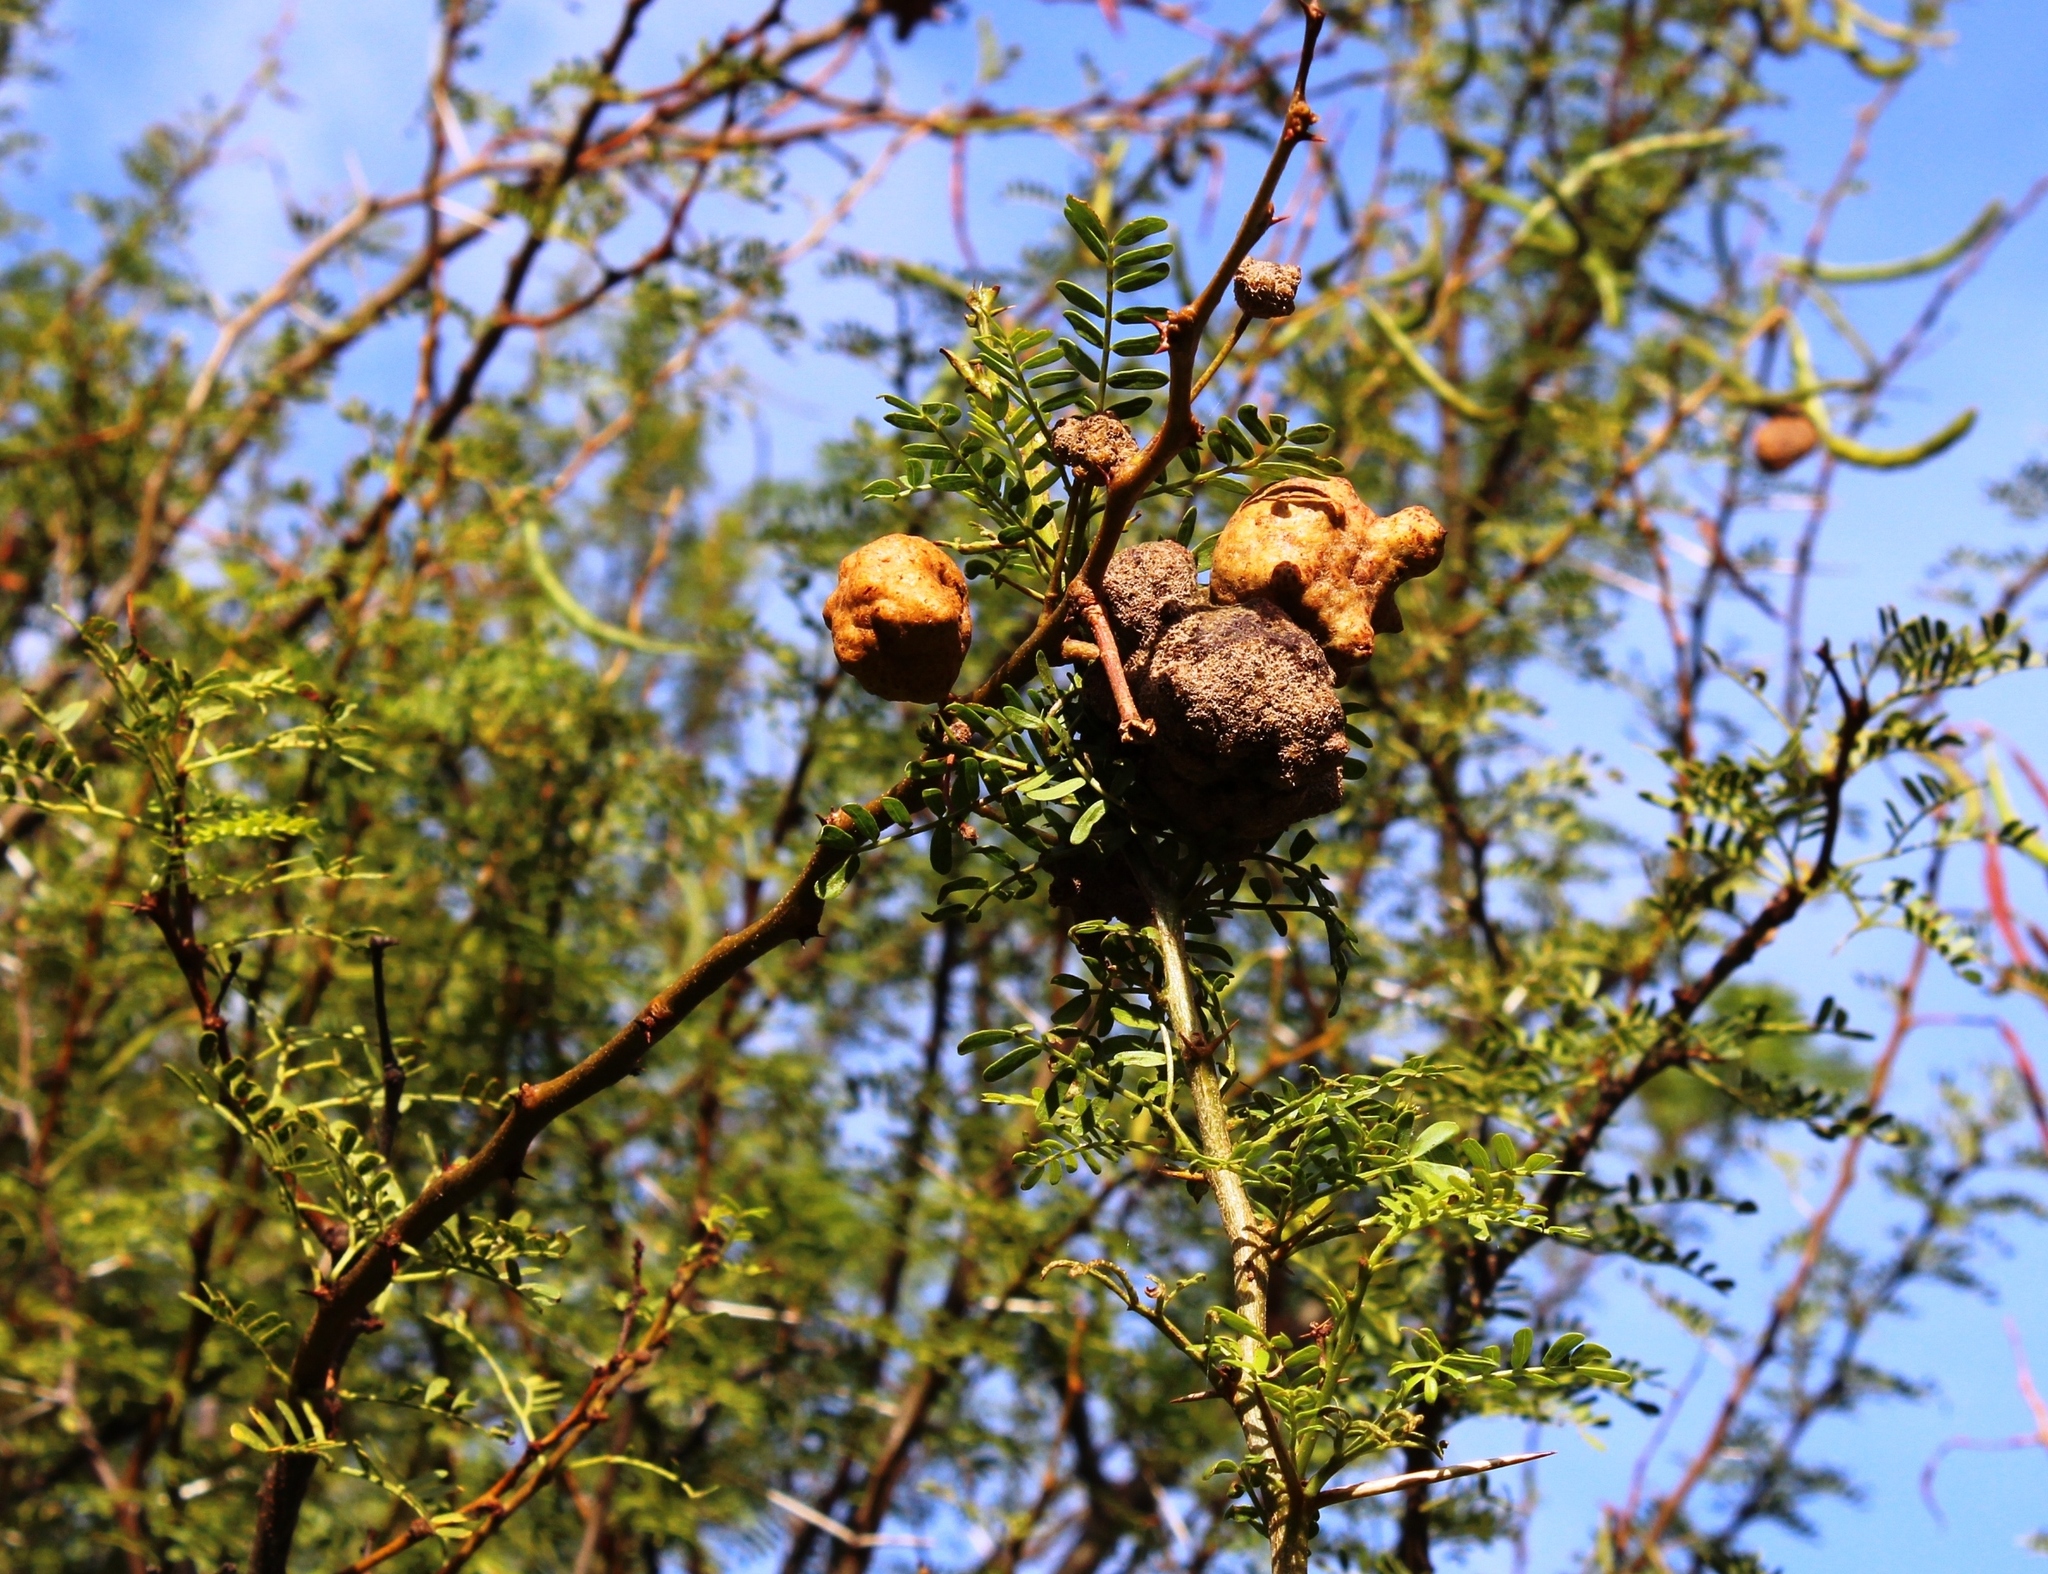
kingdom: Fungi
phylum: Basidiomycota
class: Pucciniomycetes
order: Pucciniales
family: Raveneliaceae
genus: Cephalotelium
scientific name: Cephalotelium macowanianum
